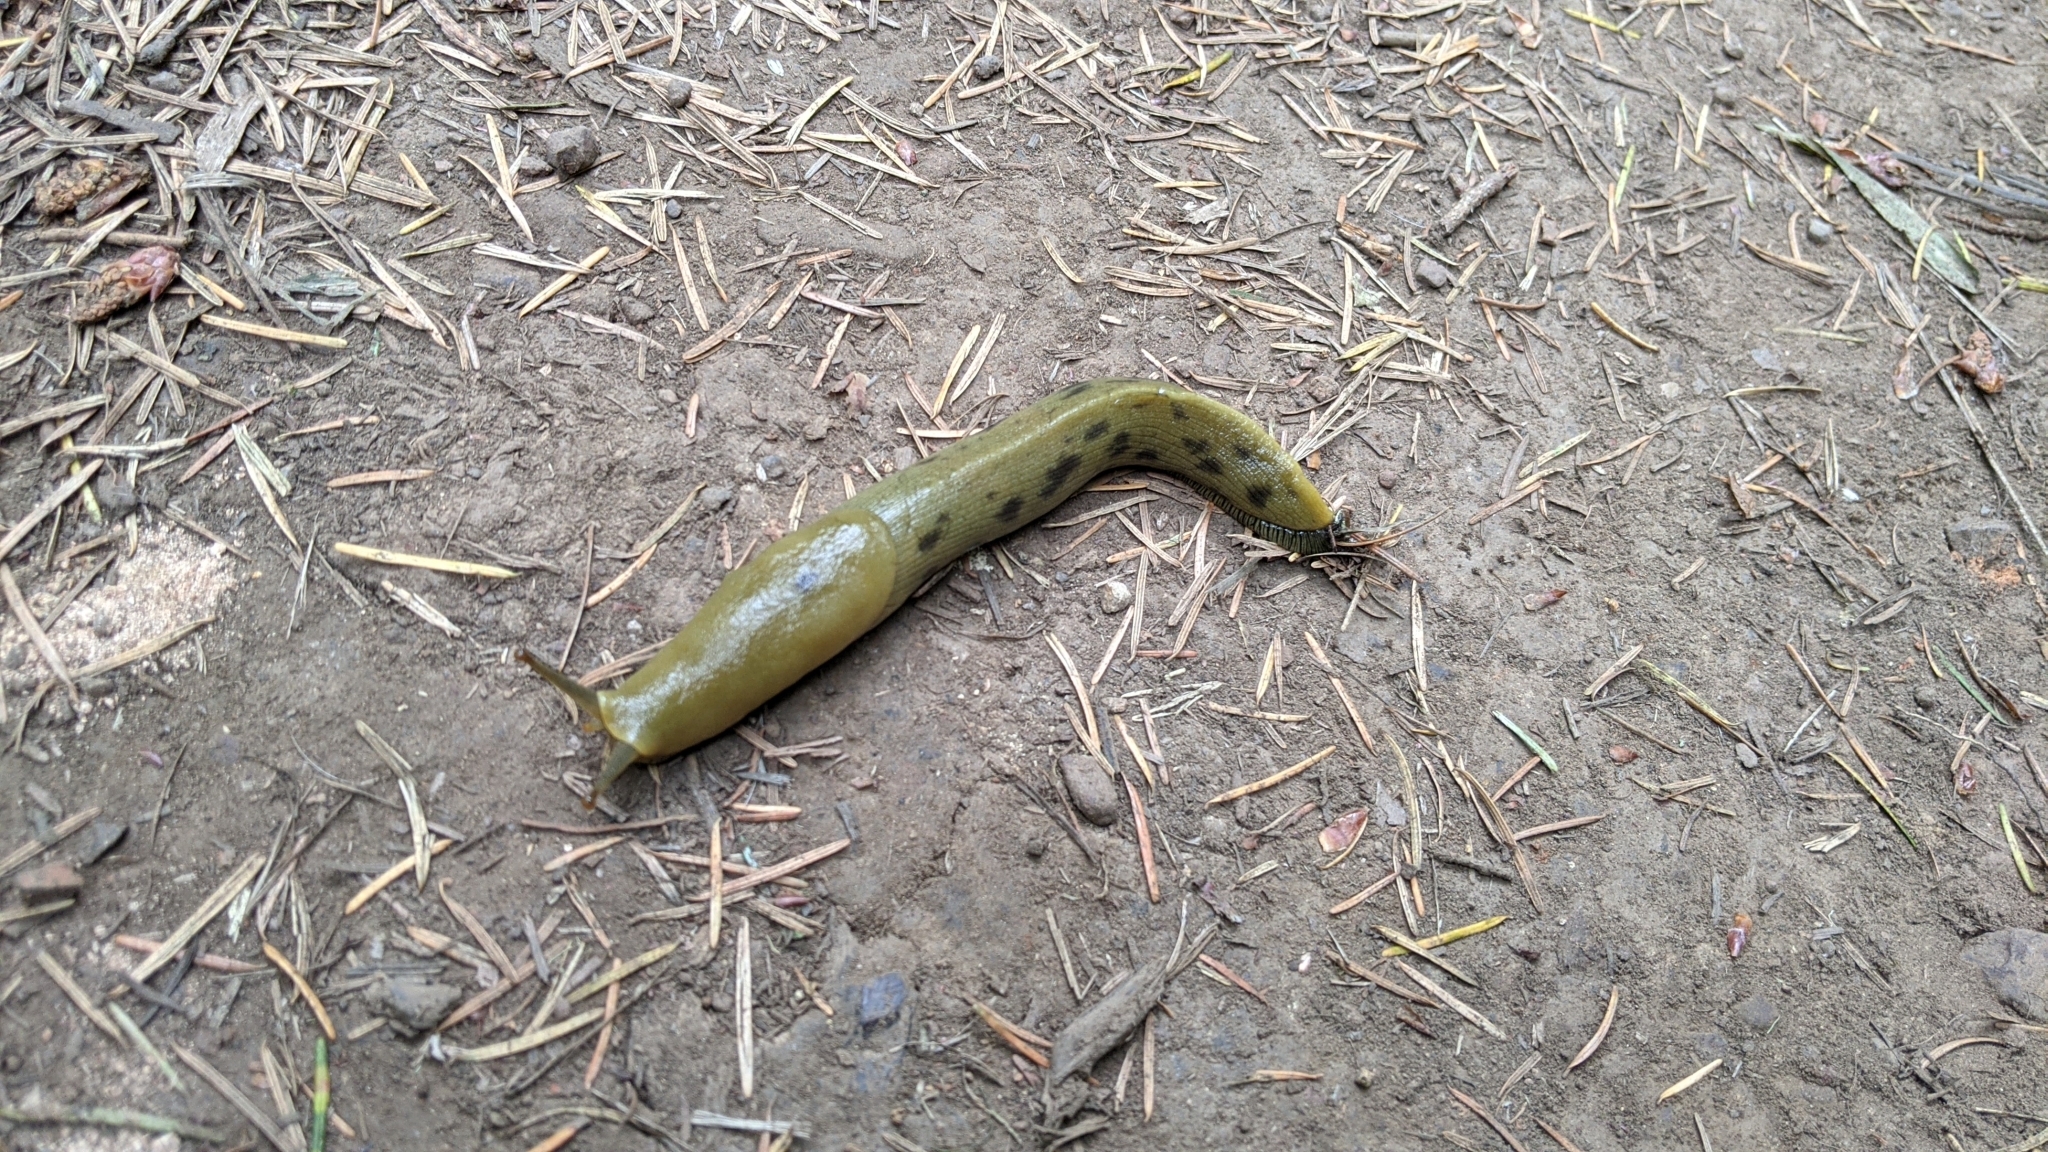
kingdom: Animalia
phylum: Mollusca
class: Gastropoda
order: Stylommatophora
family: Ariolimacidae
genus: Ariolimax
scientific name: Ariolimax buttoni
